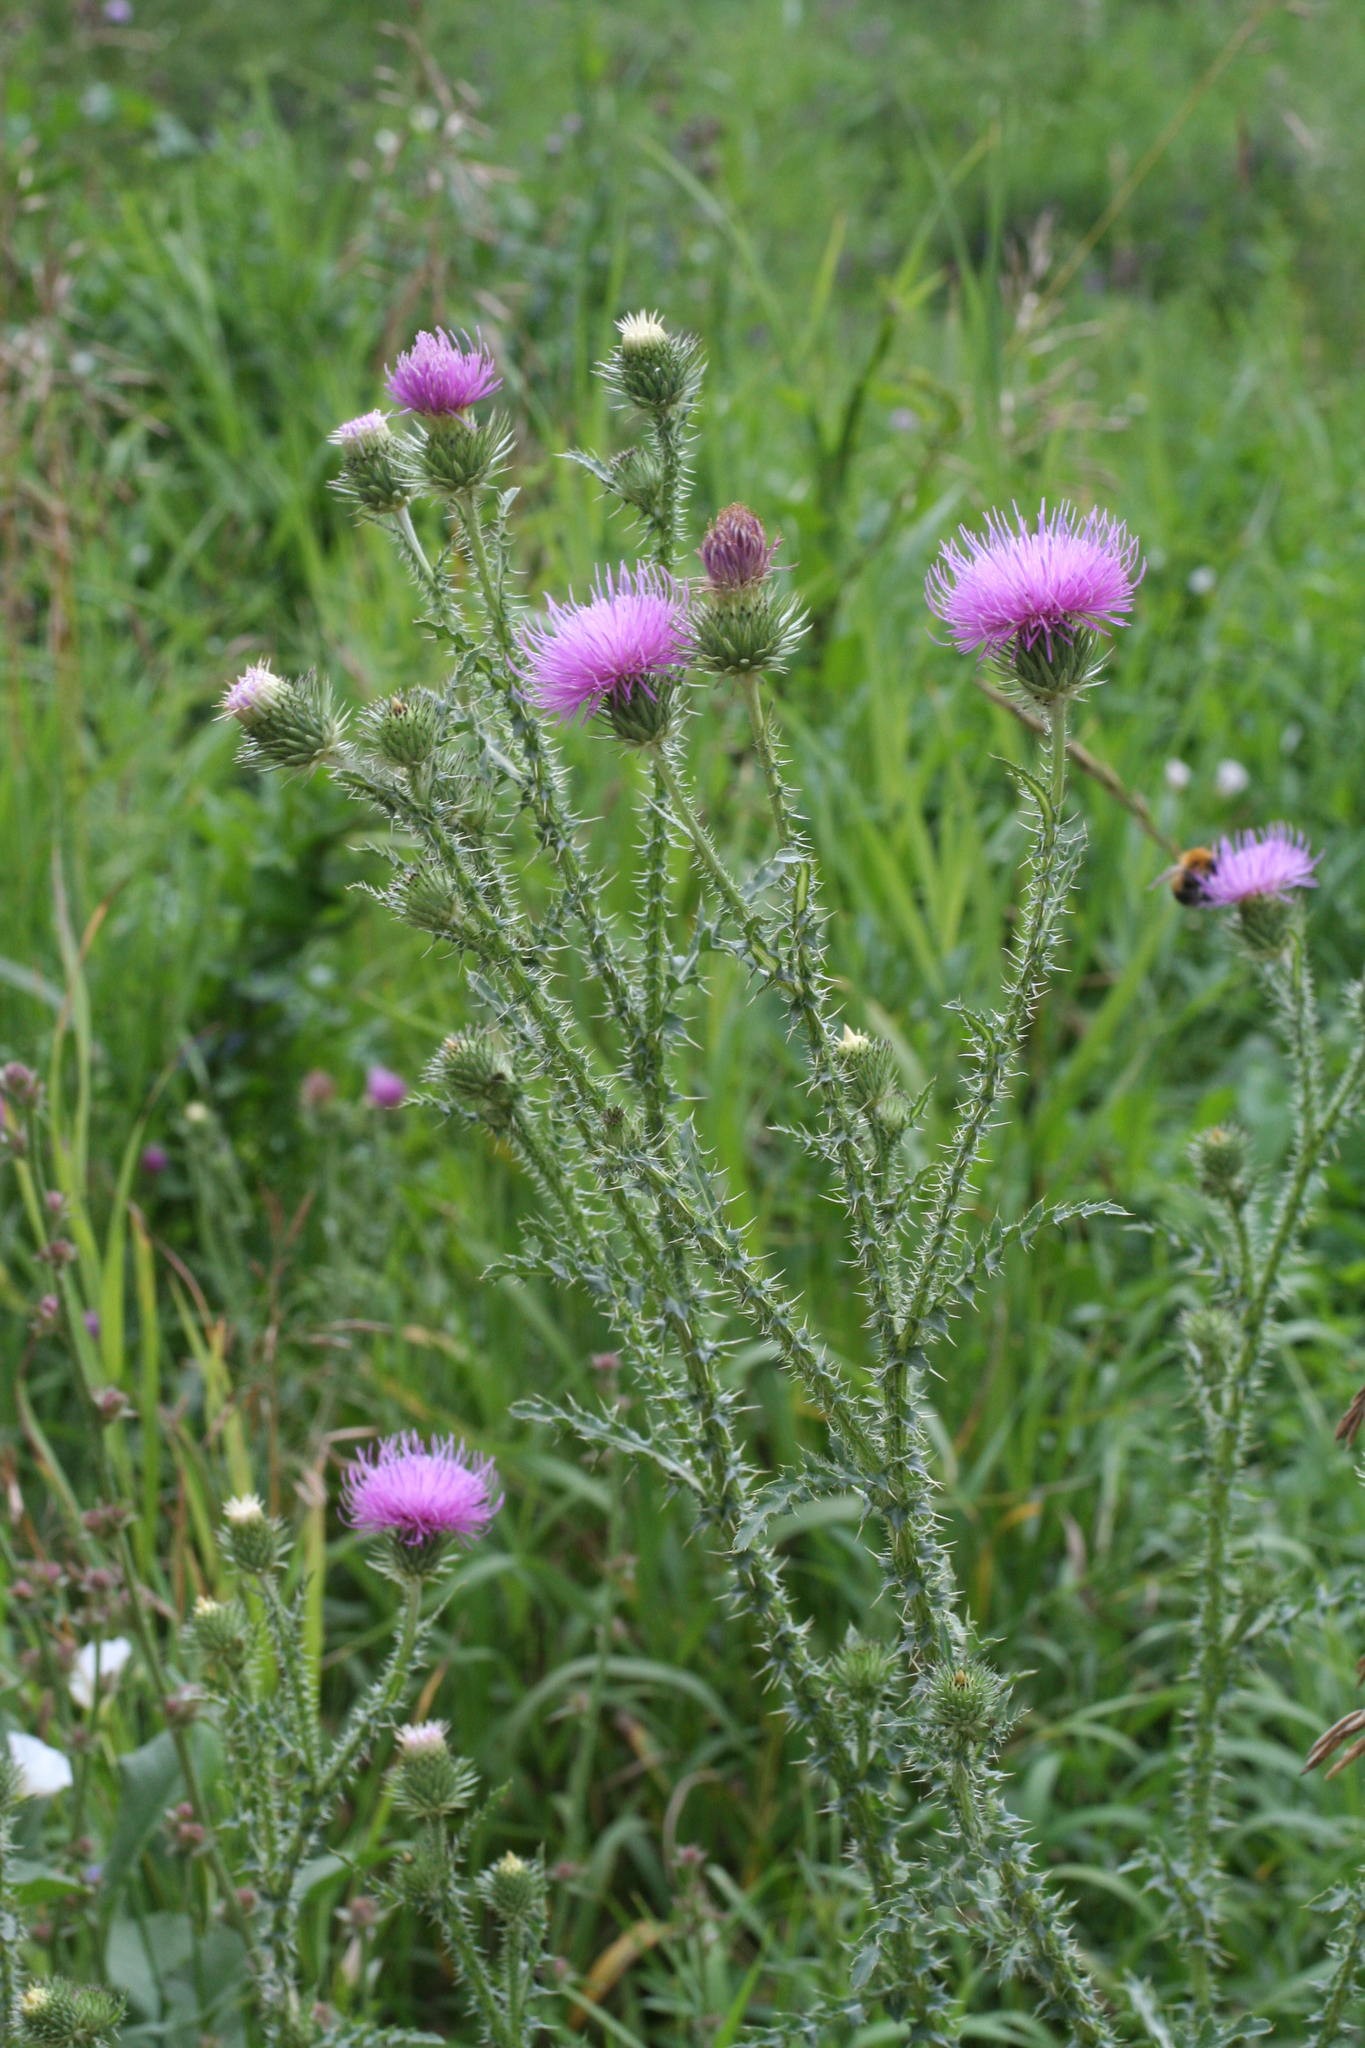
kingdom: Plantae
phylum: Tracheophyta
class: Magnoliopsida
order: Asterales
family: Asteraceae
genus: Carduus
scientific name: Carduus acanthoides
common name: Plumeless thistle
